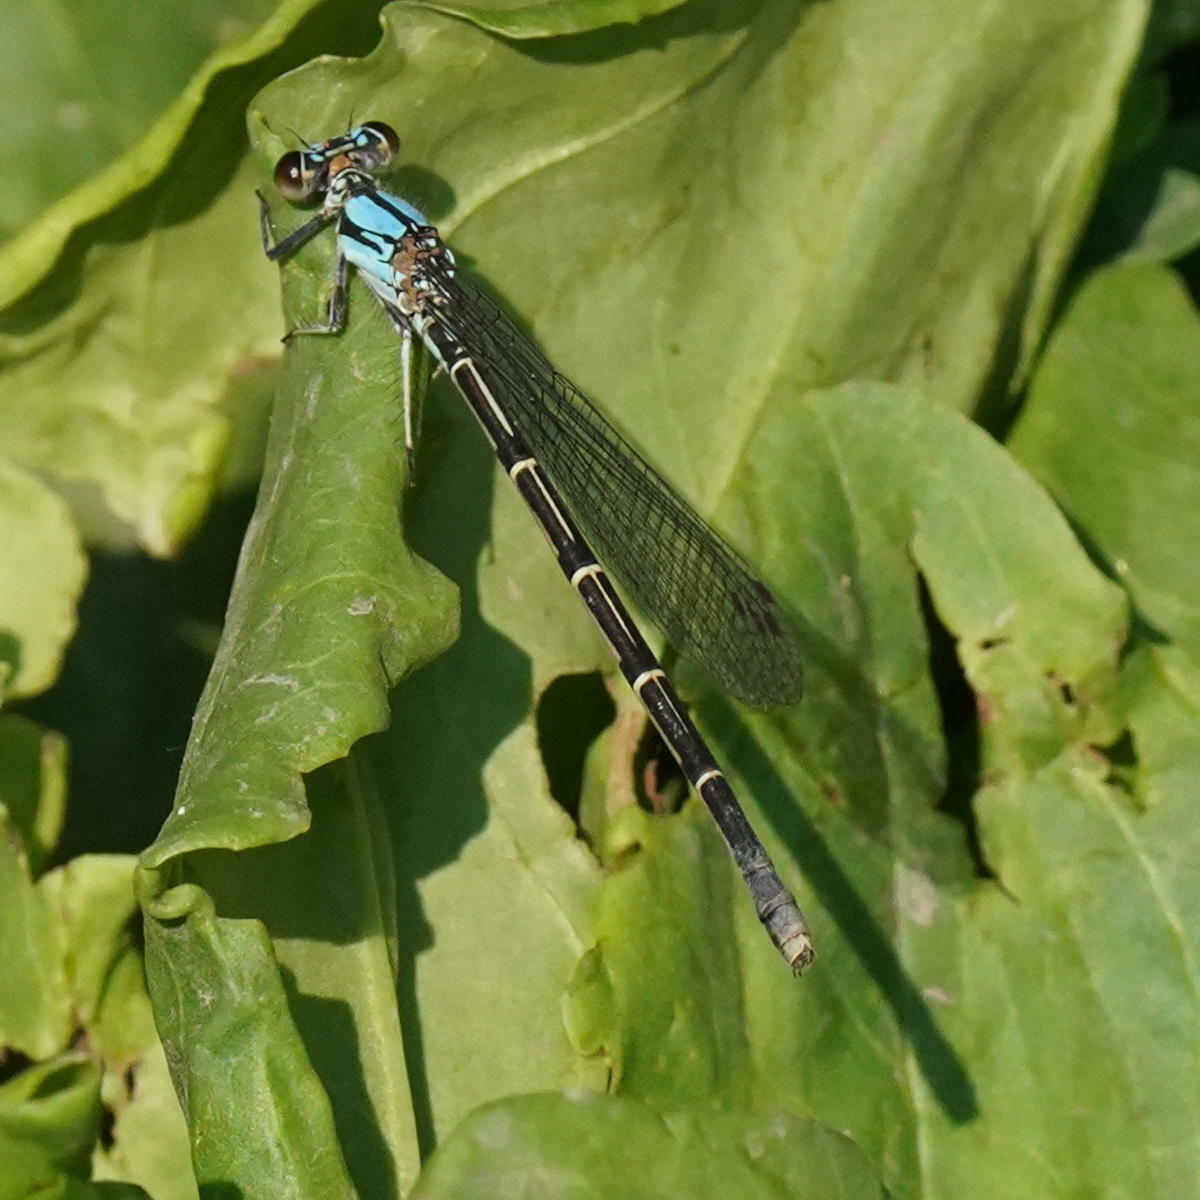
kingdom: Animalia
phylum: Arthropoda
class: Insecta
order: Odonata
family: Coenagrionidae
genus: Argia
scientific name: Argia tibialis
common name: Blue-tipped dancer
